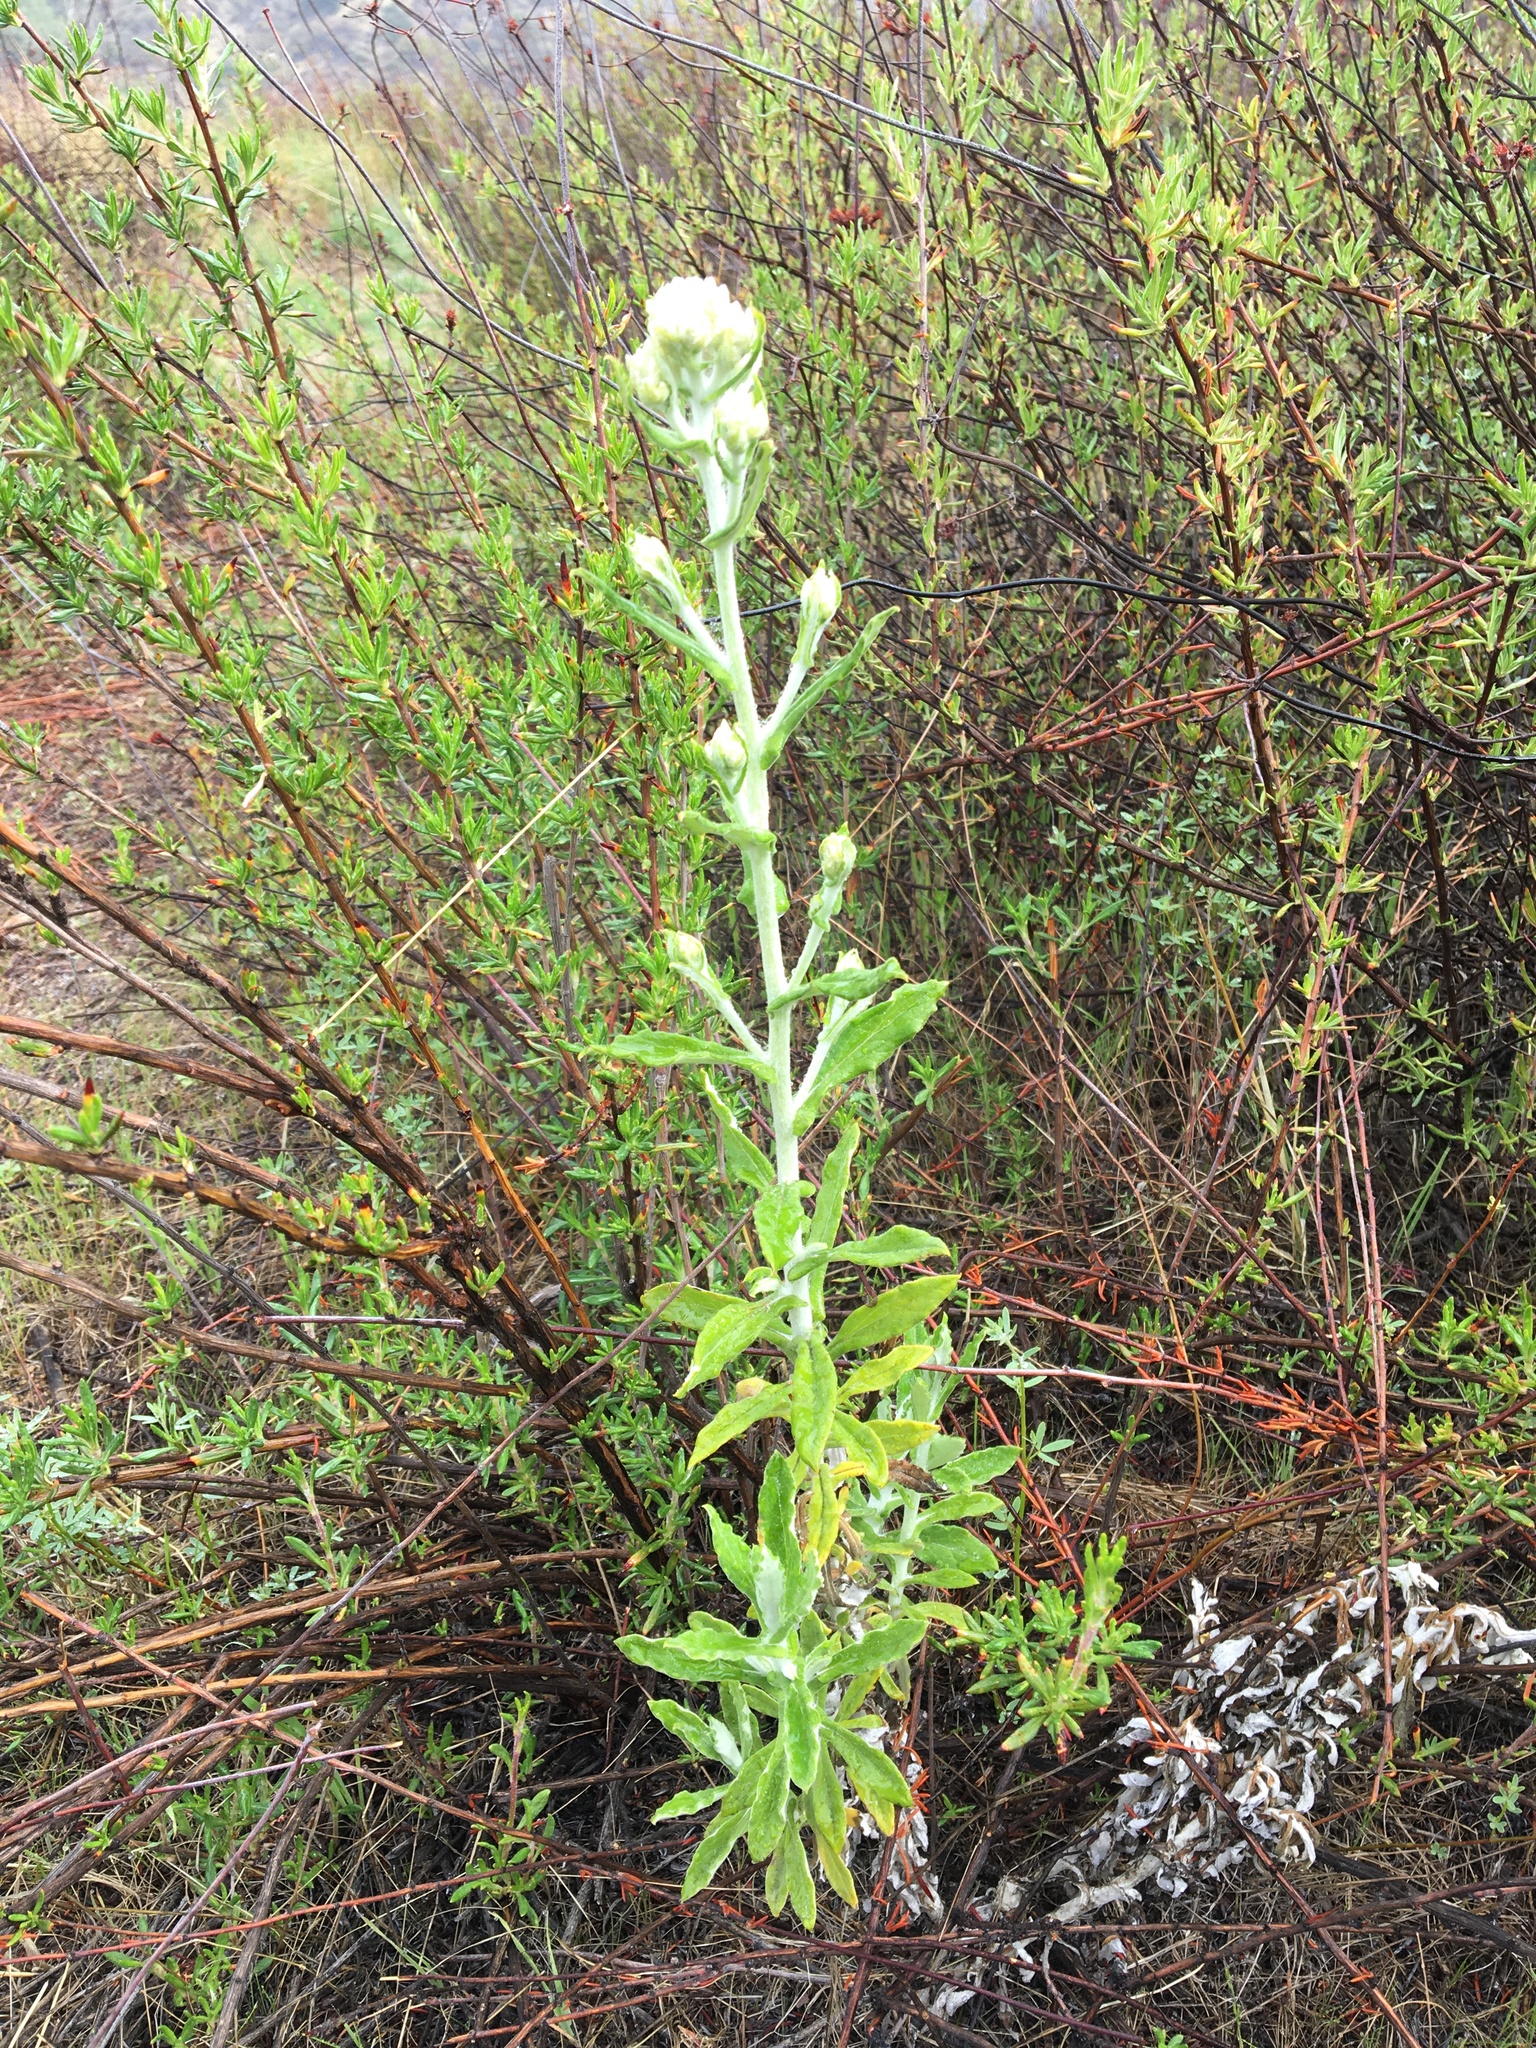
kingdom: Plantae
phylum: Tracheophyta
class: Magnoliopsida
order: Asterales
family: Asteraceae
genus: Pseudognaphalium
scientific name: Pseudognaphalium biolettii
